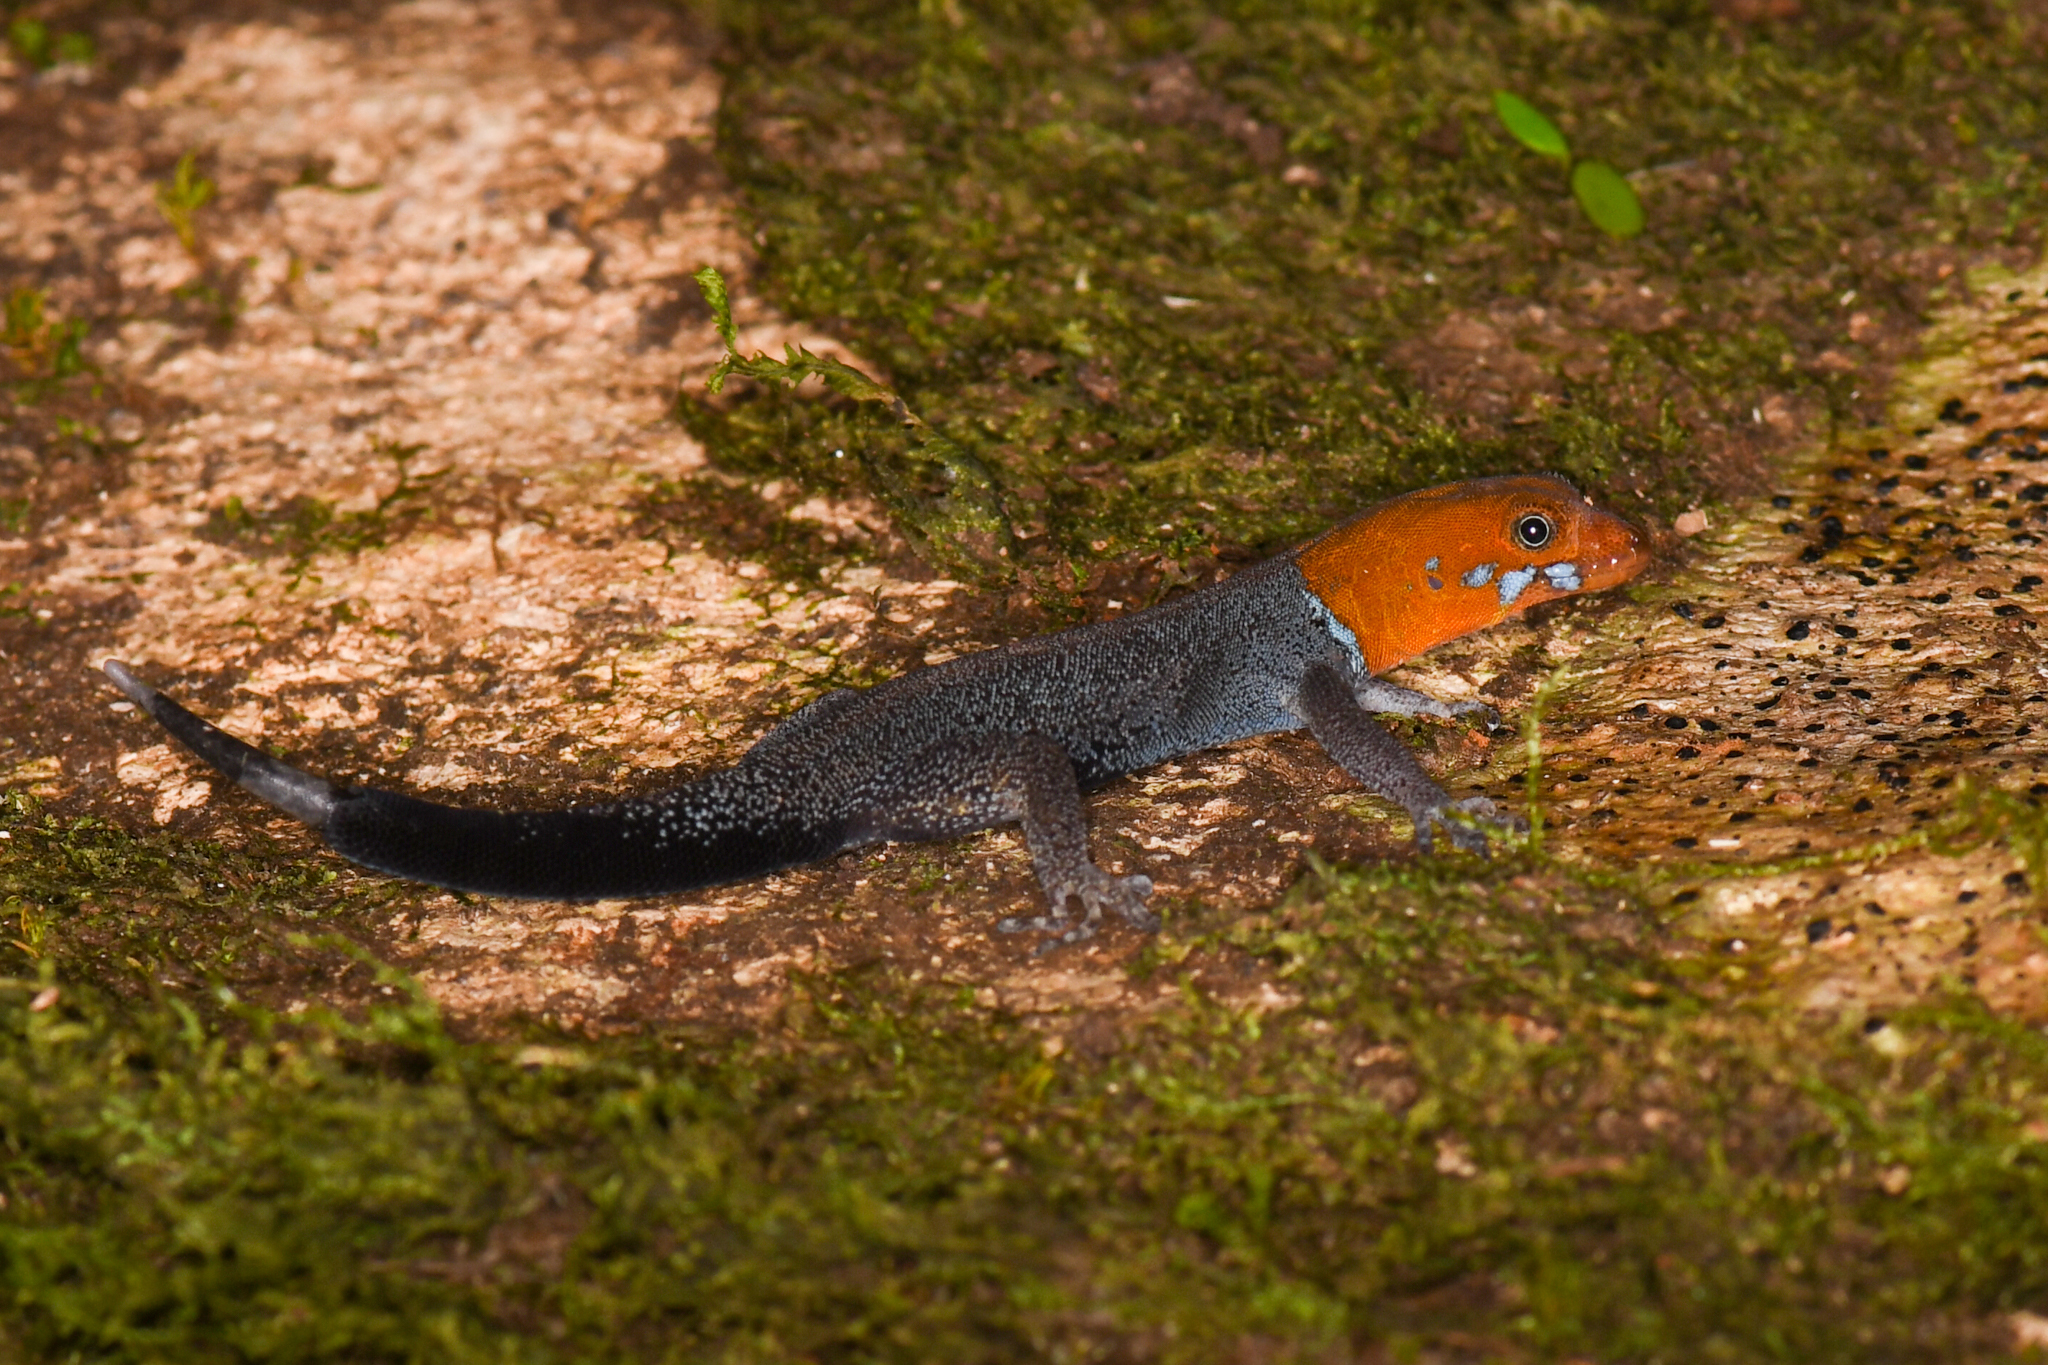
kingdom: Animalia
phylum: Chordata
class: Squamata
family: Sphaerodactylidae
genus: Gonatodes
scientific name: Gonatodes albogularis
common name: Yellow-headed gecko
